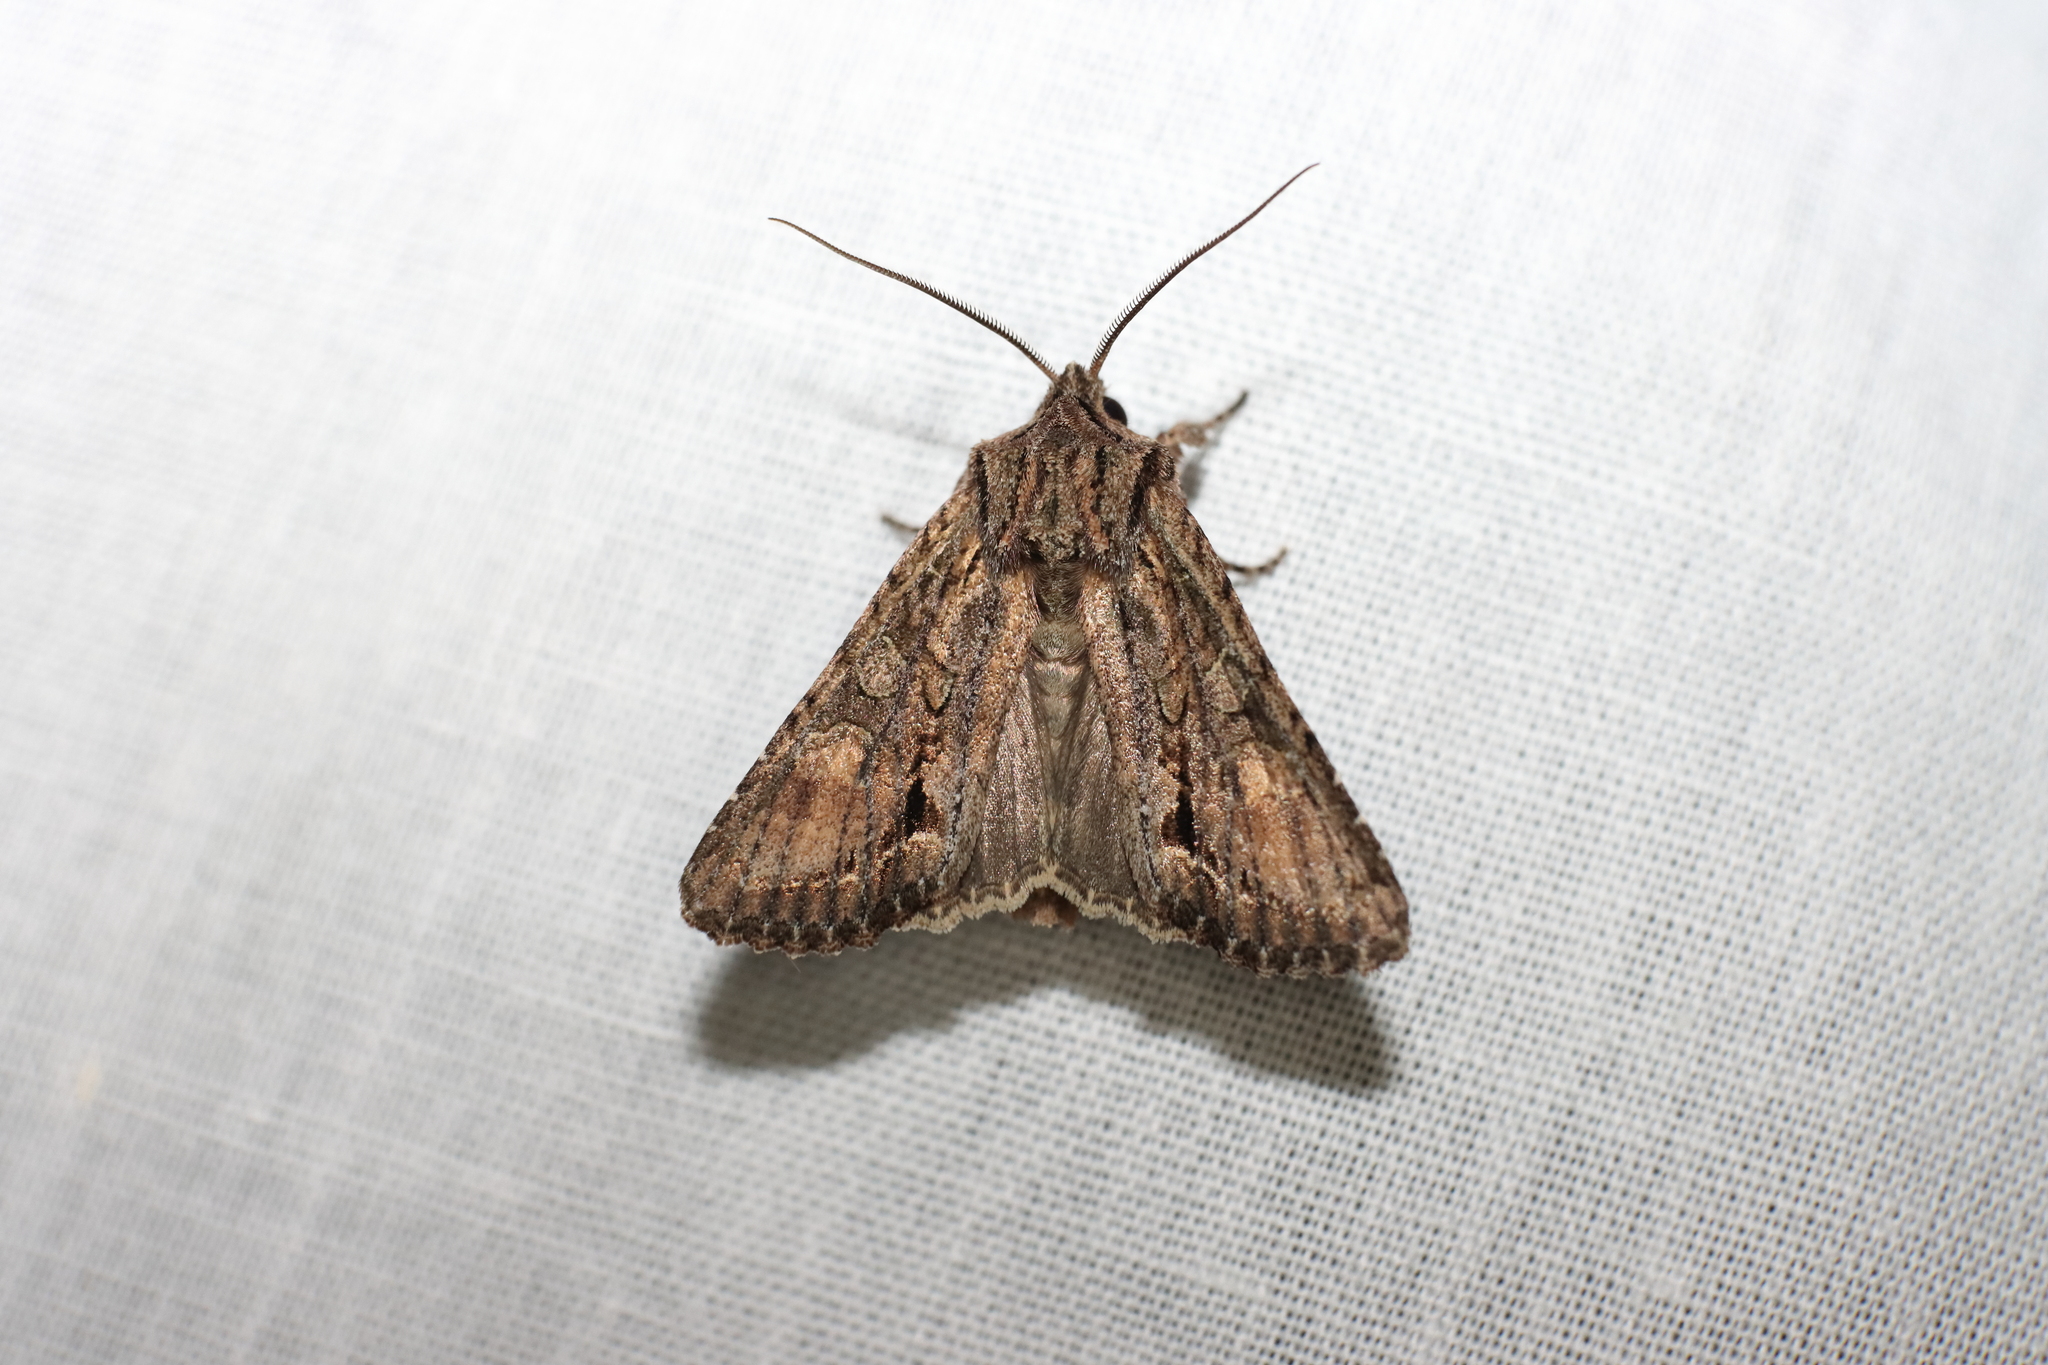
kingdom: Animalia
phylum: Arthropoda
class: Insecta
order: Lepidoptera
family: Noctuidae
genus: Ichneutica
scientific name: Ichneutica mutans
